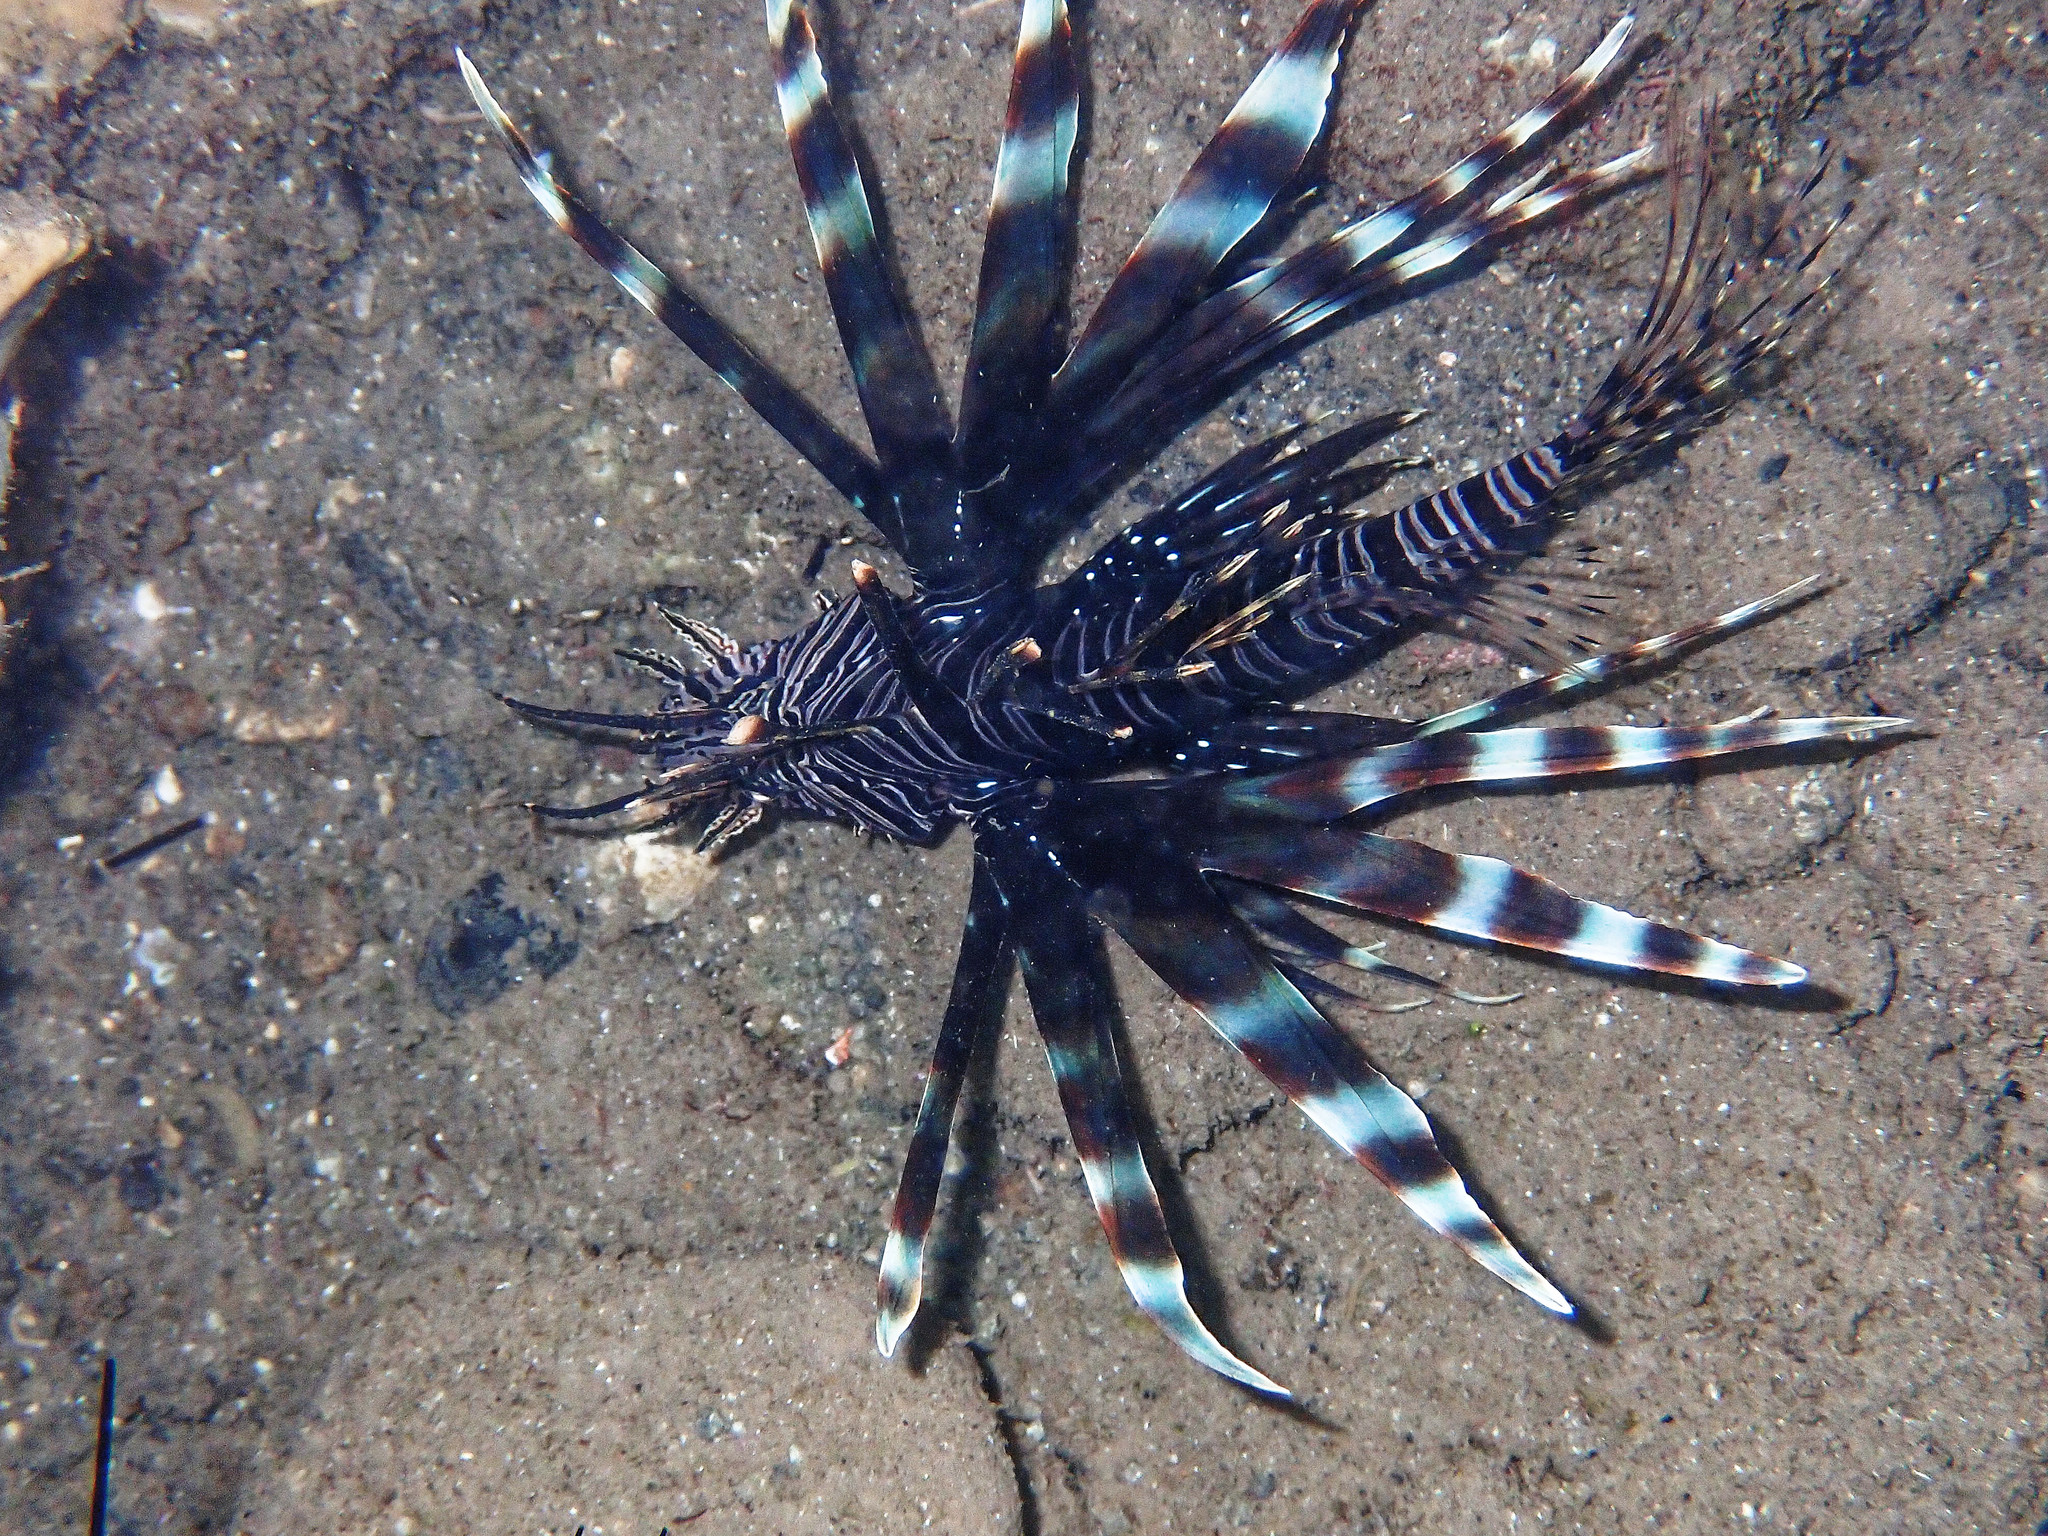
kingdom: Animalia
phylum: Chordata
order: Scorpaeniformes
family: Scorpaenidae
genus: Pterois
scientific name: Pterois volitans
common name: Lionfish
